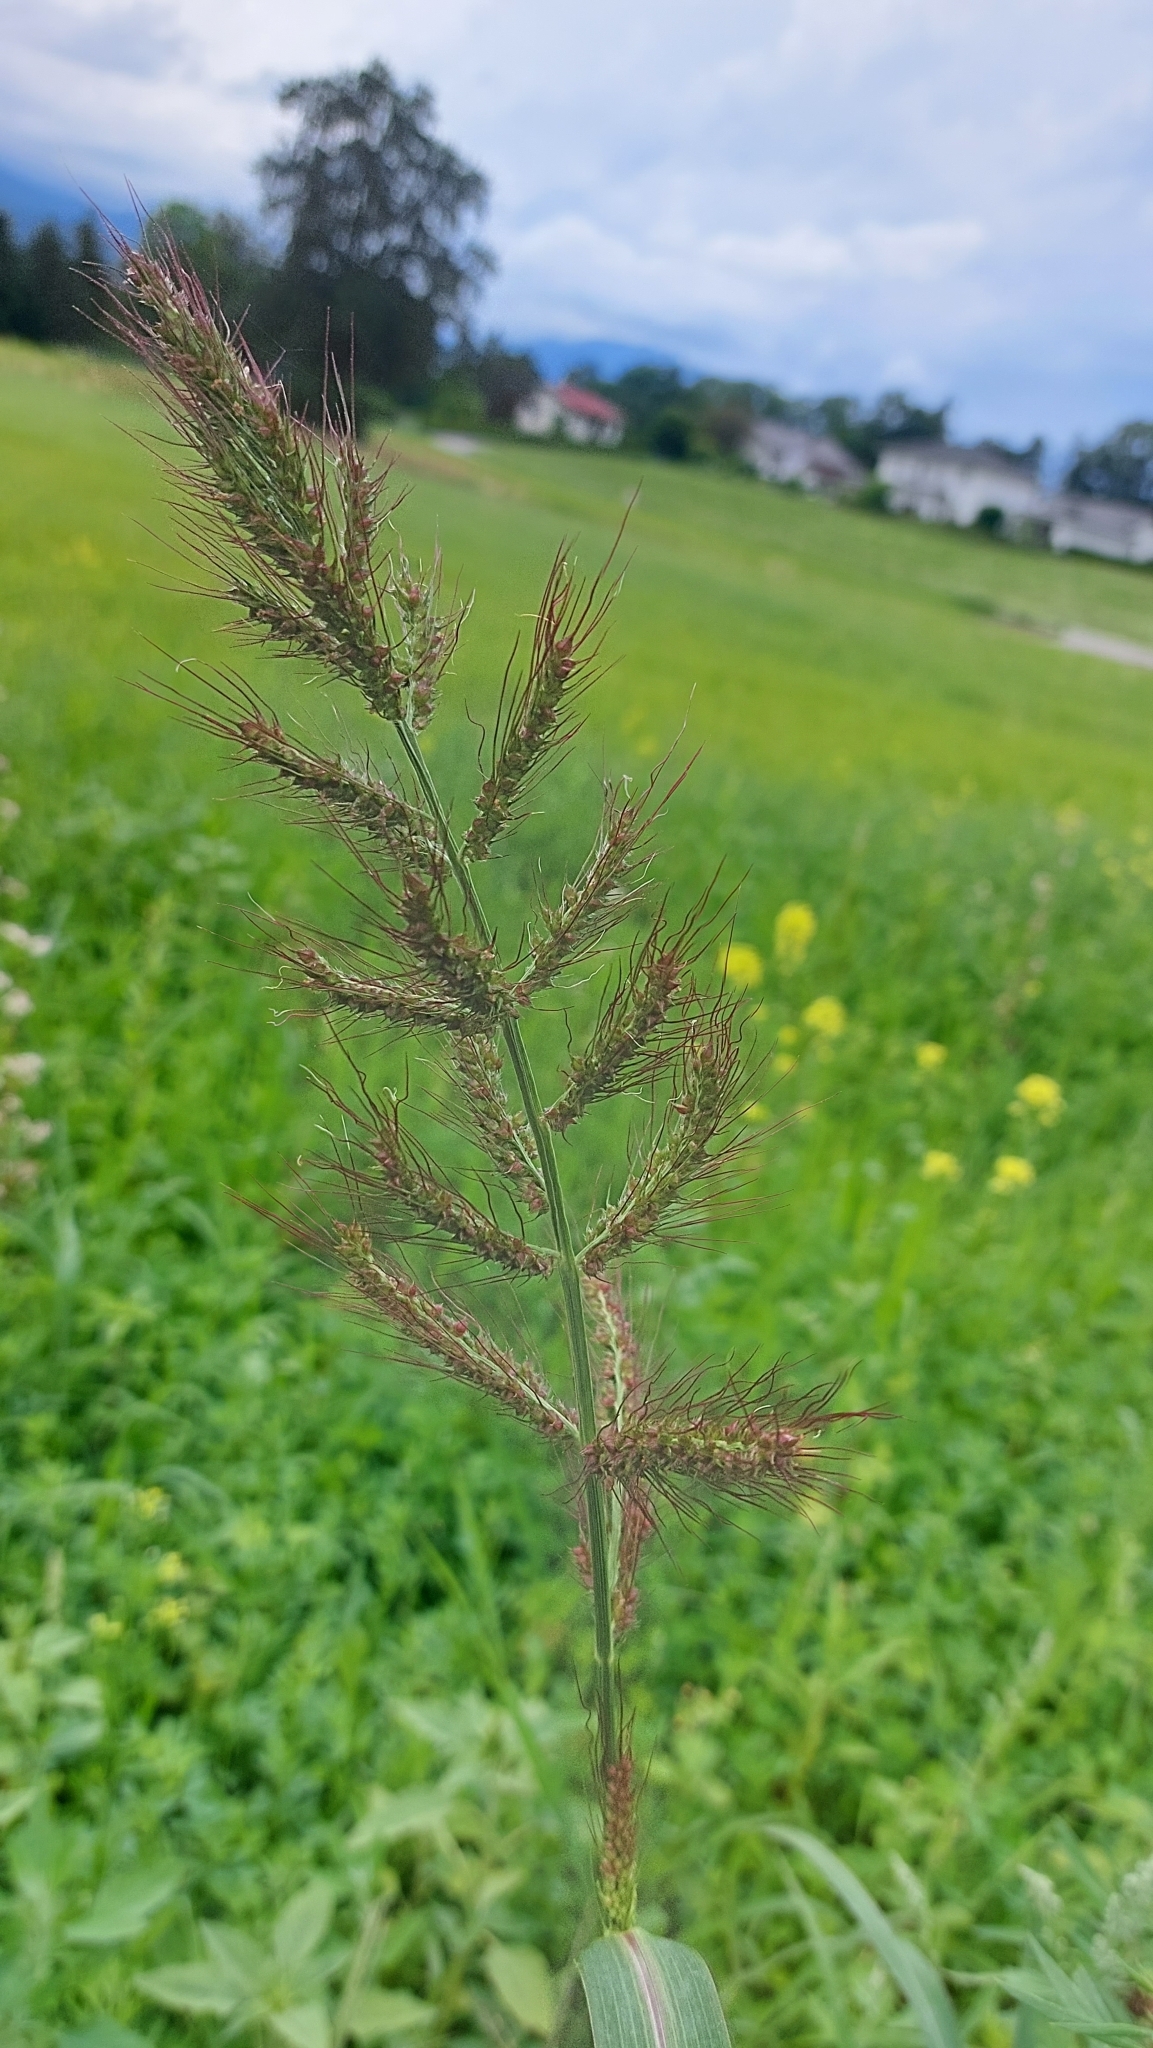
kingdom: Plantae
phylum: Tracheophyta
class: Liliopsida
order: Poales
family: Poaceae
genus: Echinochloa
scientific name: Echinochloa crus-galli
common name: Cockspur
